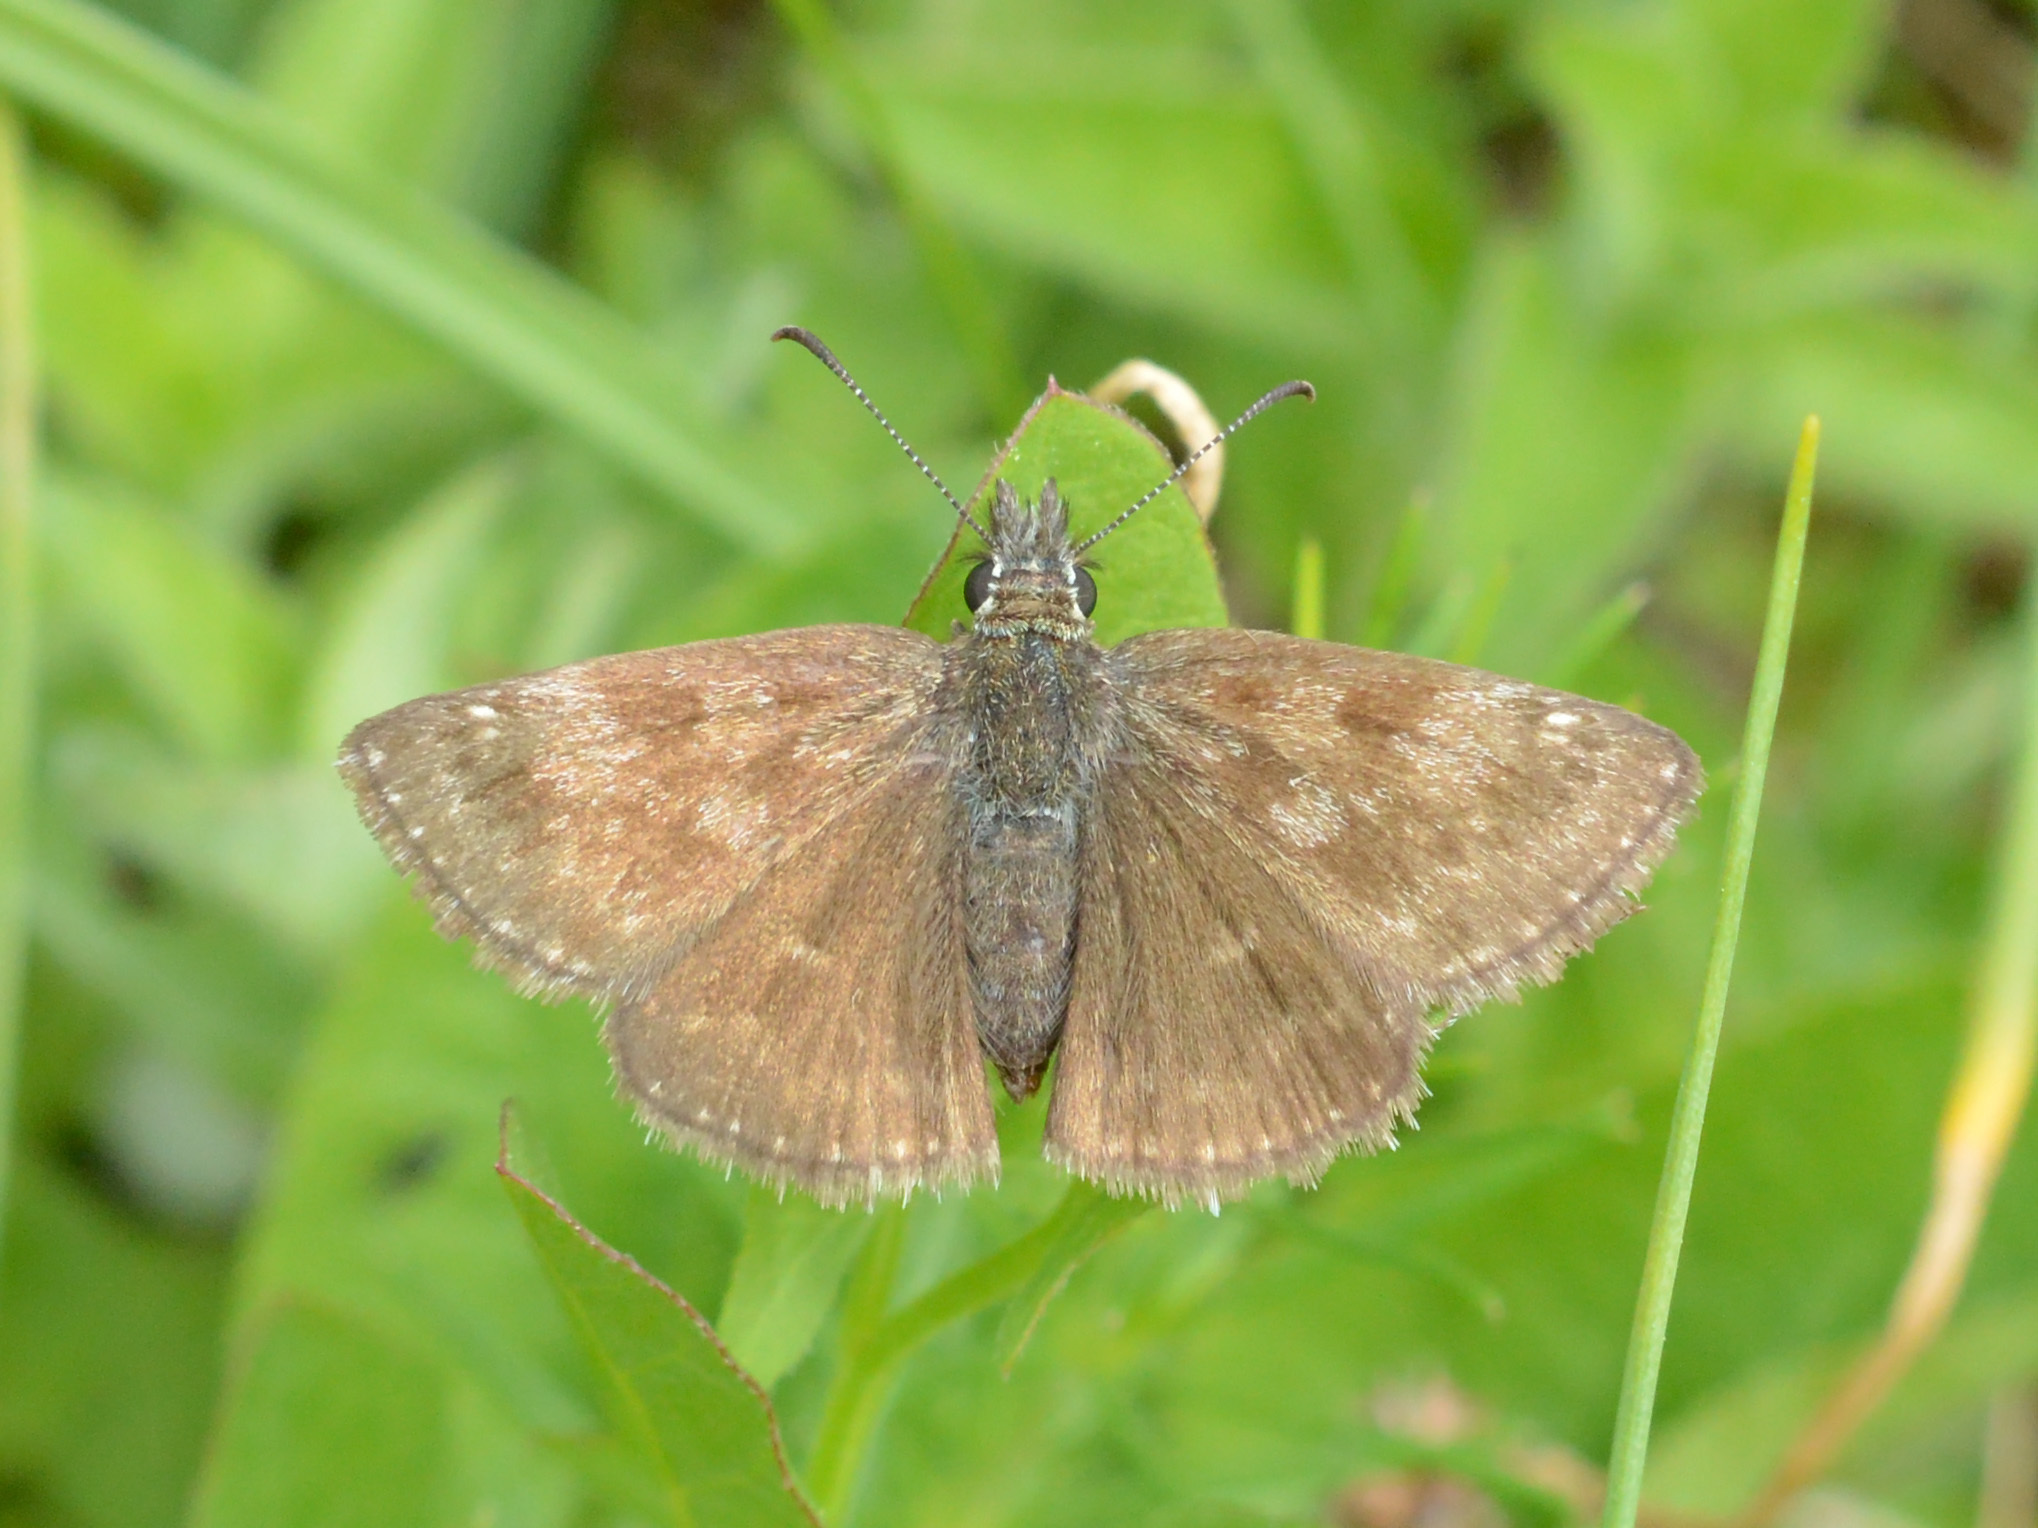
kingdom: Animalia
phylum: Arthropoda
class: Insecta
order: Lepidoptera
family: Hesperiidae
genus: Erynnis
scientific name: Erynnis tages
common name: Dingy skipper
